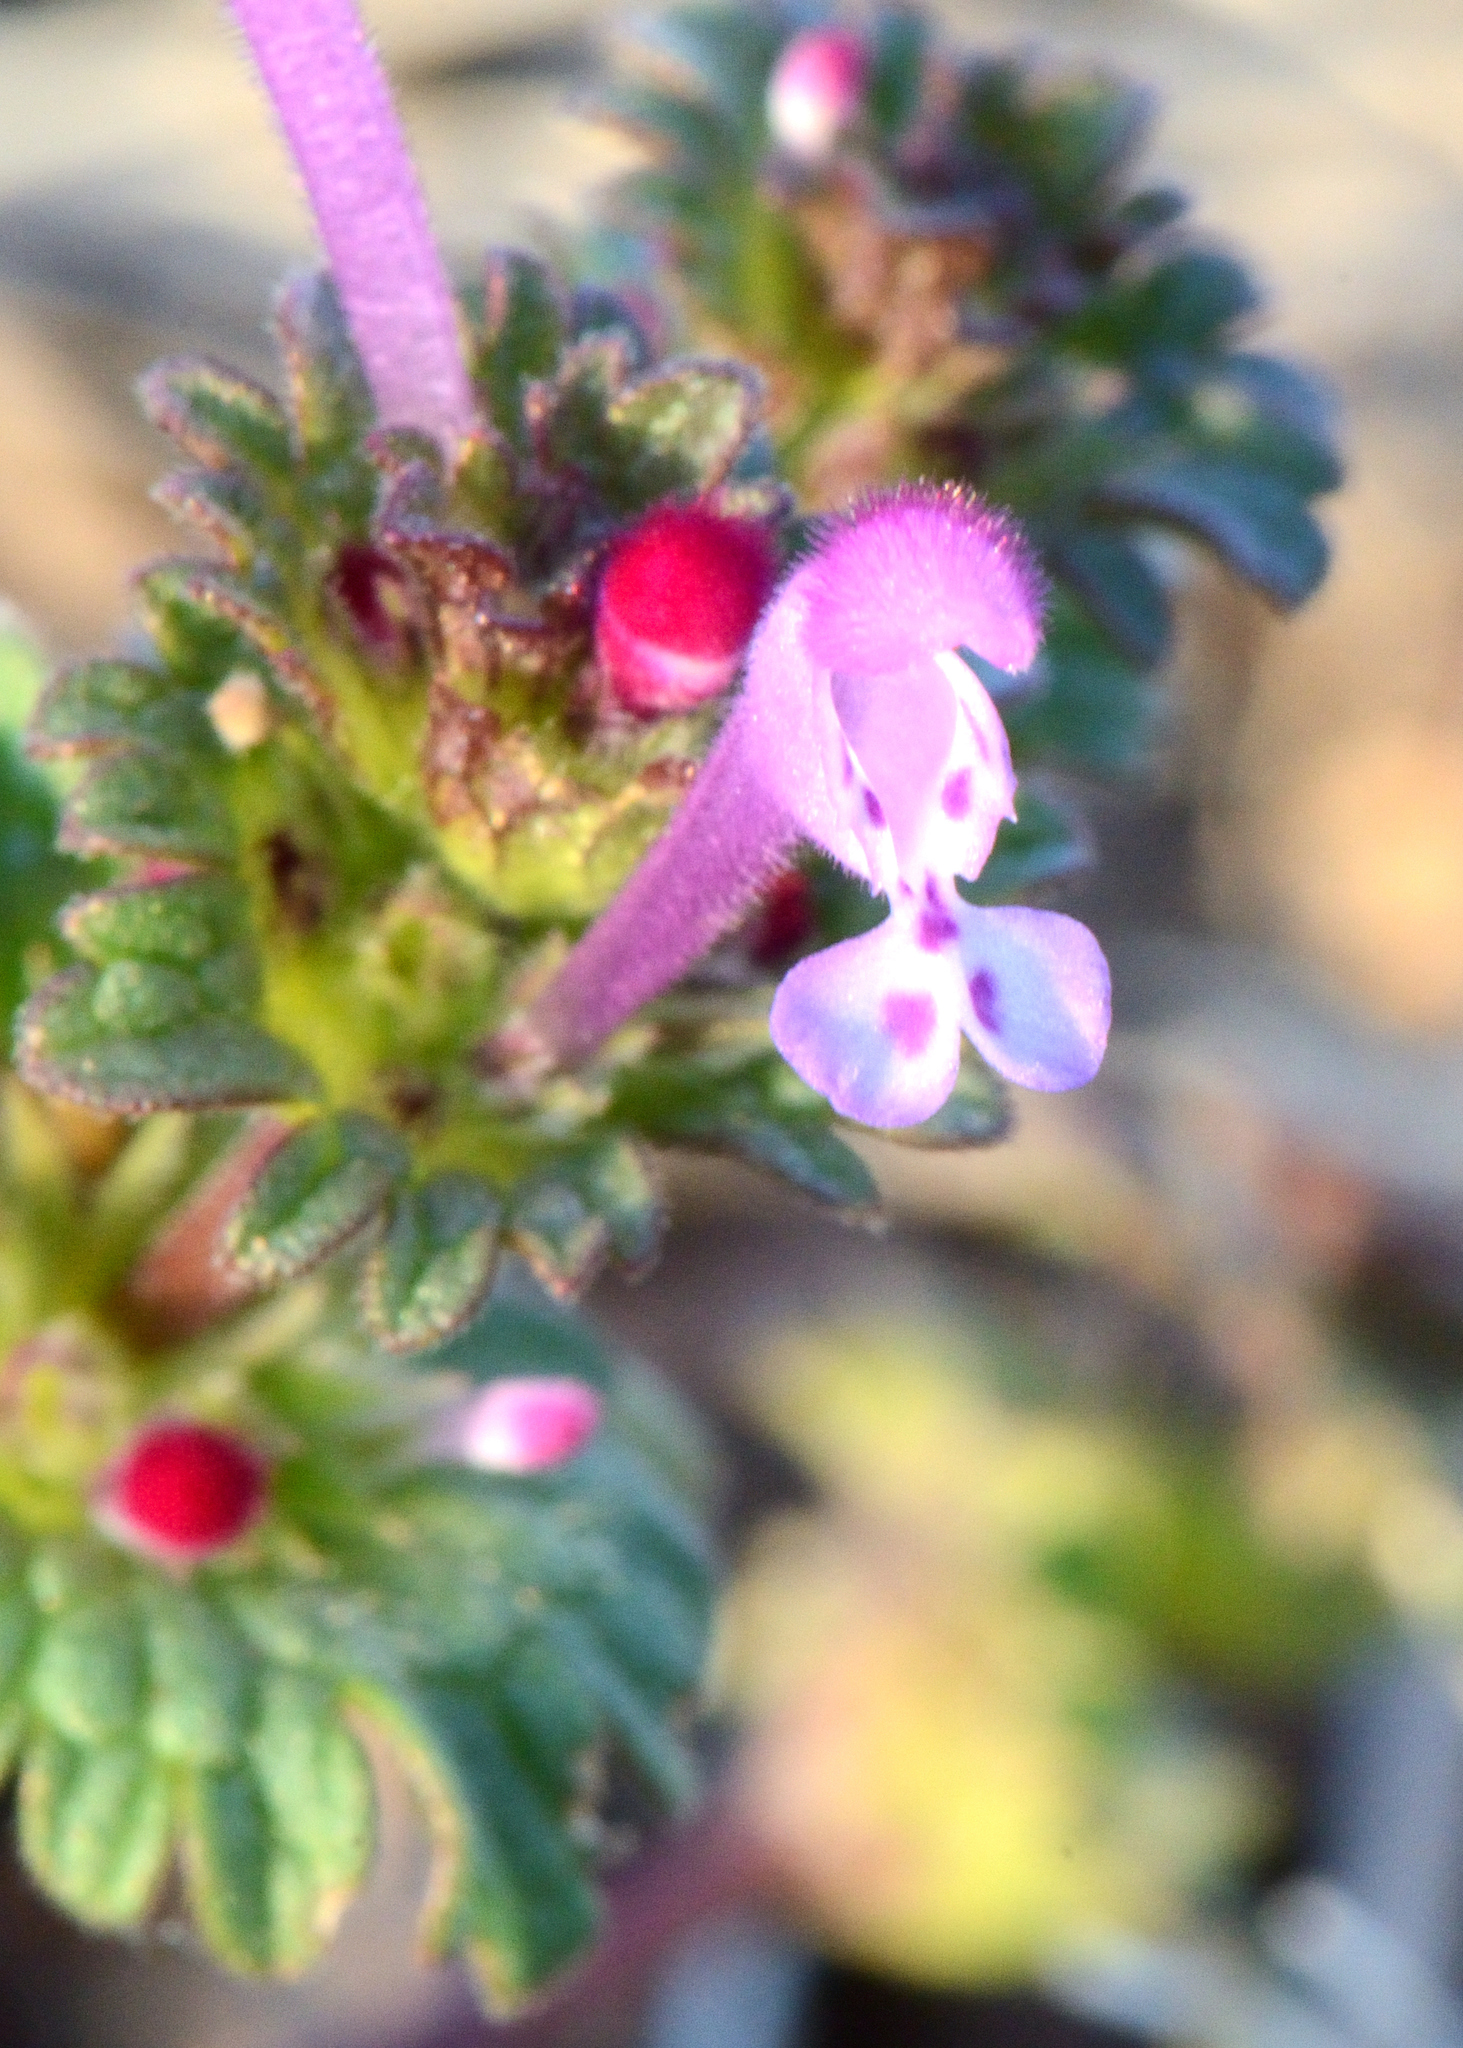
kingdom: Plantae
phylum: Tracheophyta
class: Magnoliopsida
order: Lamiales
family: Lamiaceae
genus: Lamium
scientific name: Lamium amplexicaule
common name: Henbit dead-nettle
